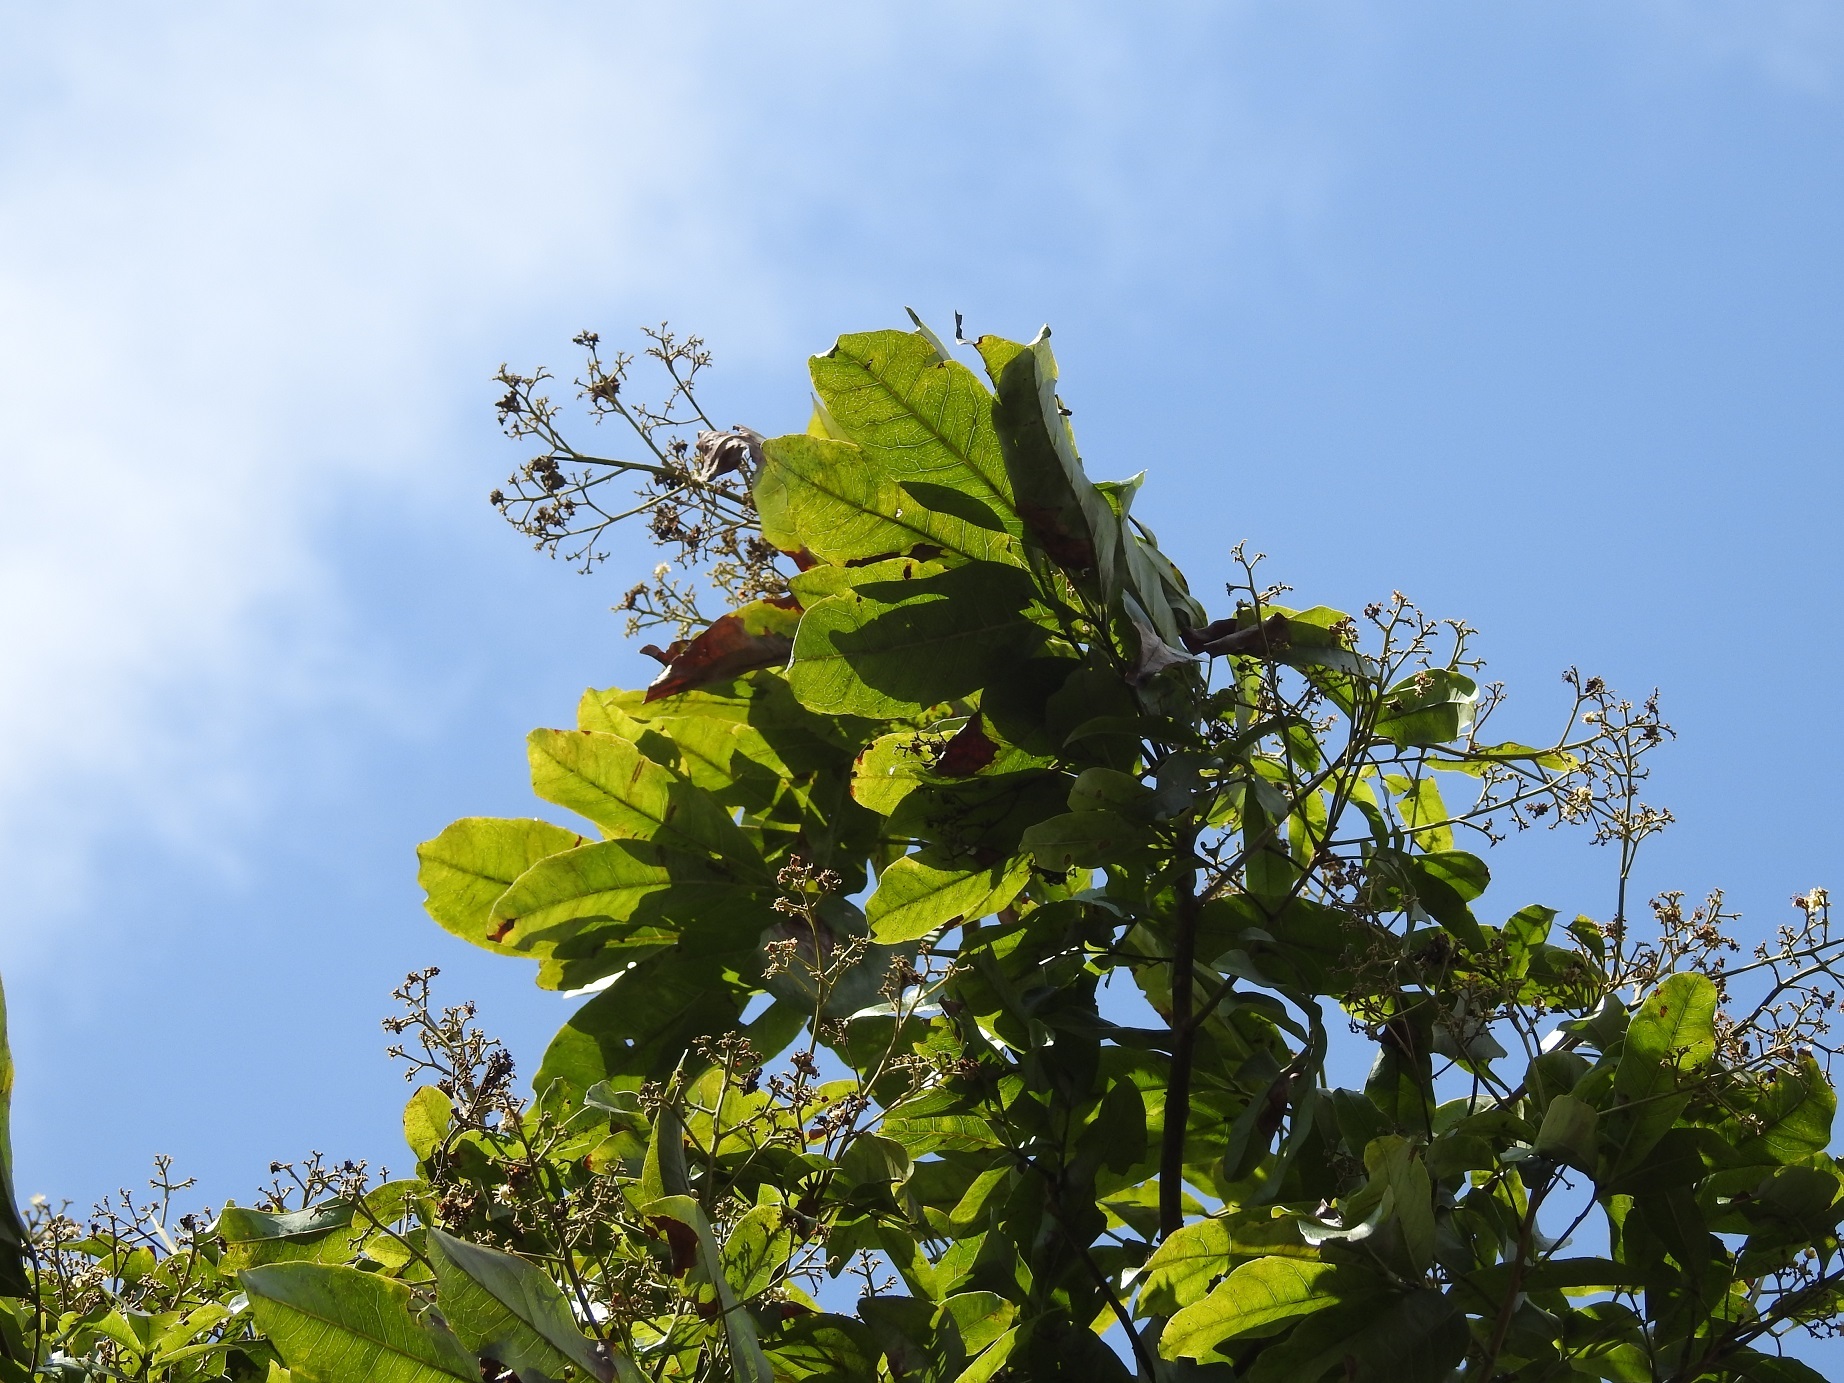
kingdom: Plantae
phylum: Tracheophyta
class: Magnoliopsida
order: Sapindales
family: Sapindaceae
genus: Sapindus
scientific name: Sapindus drummondii
